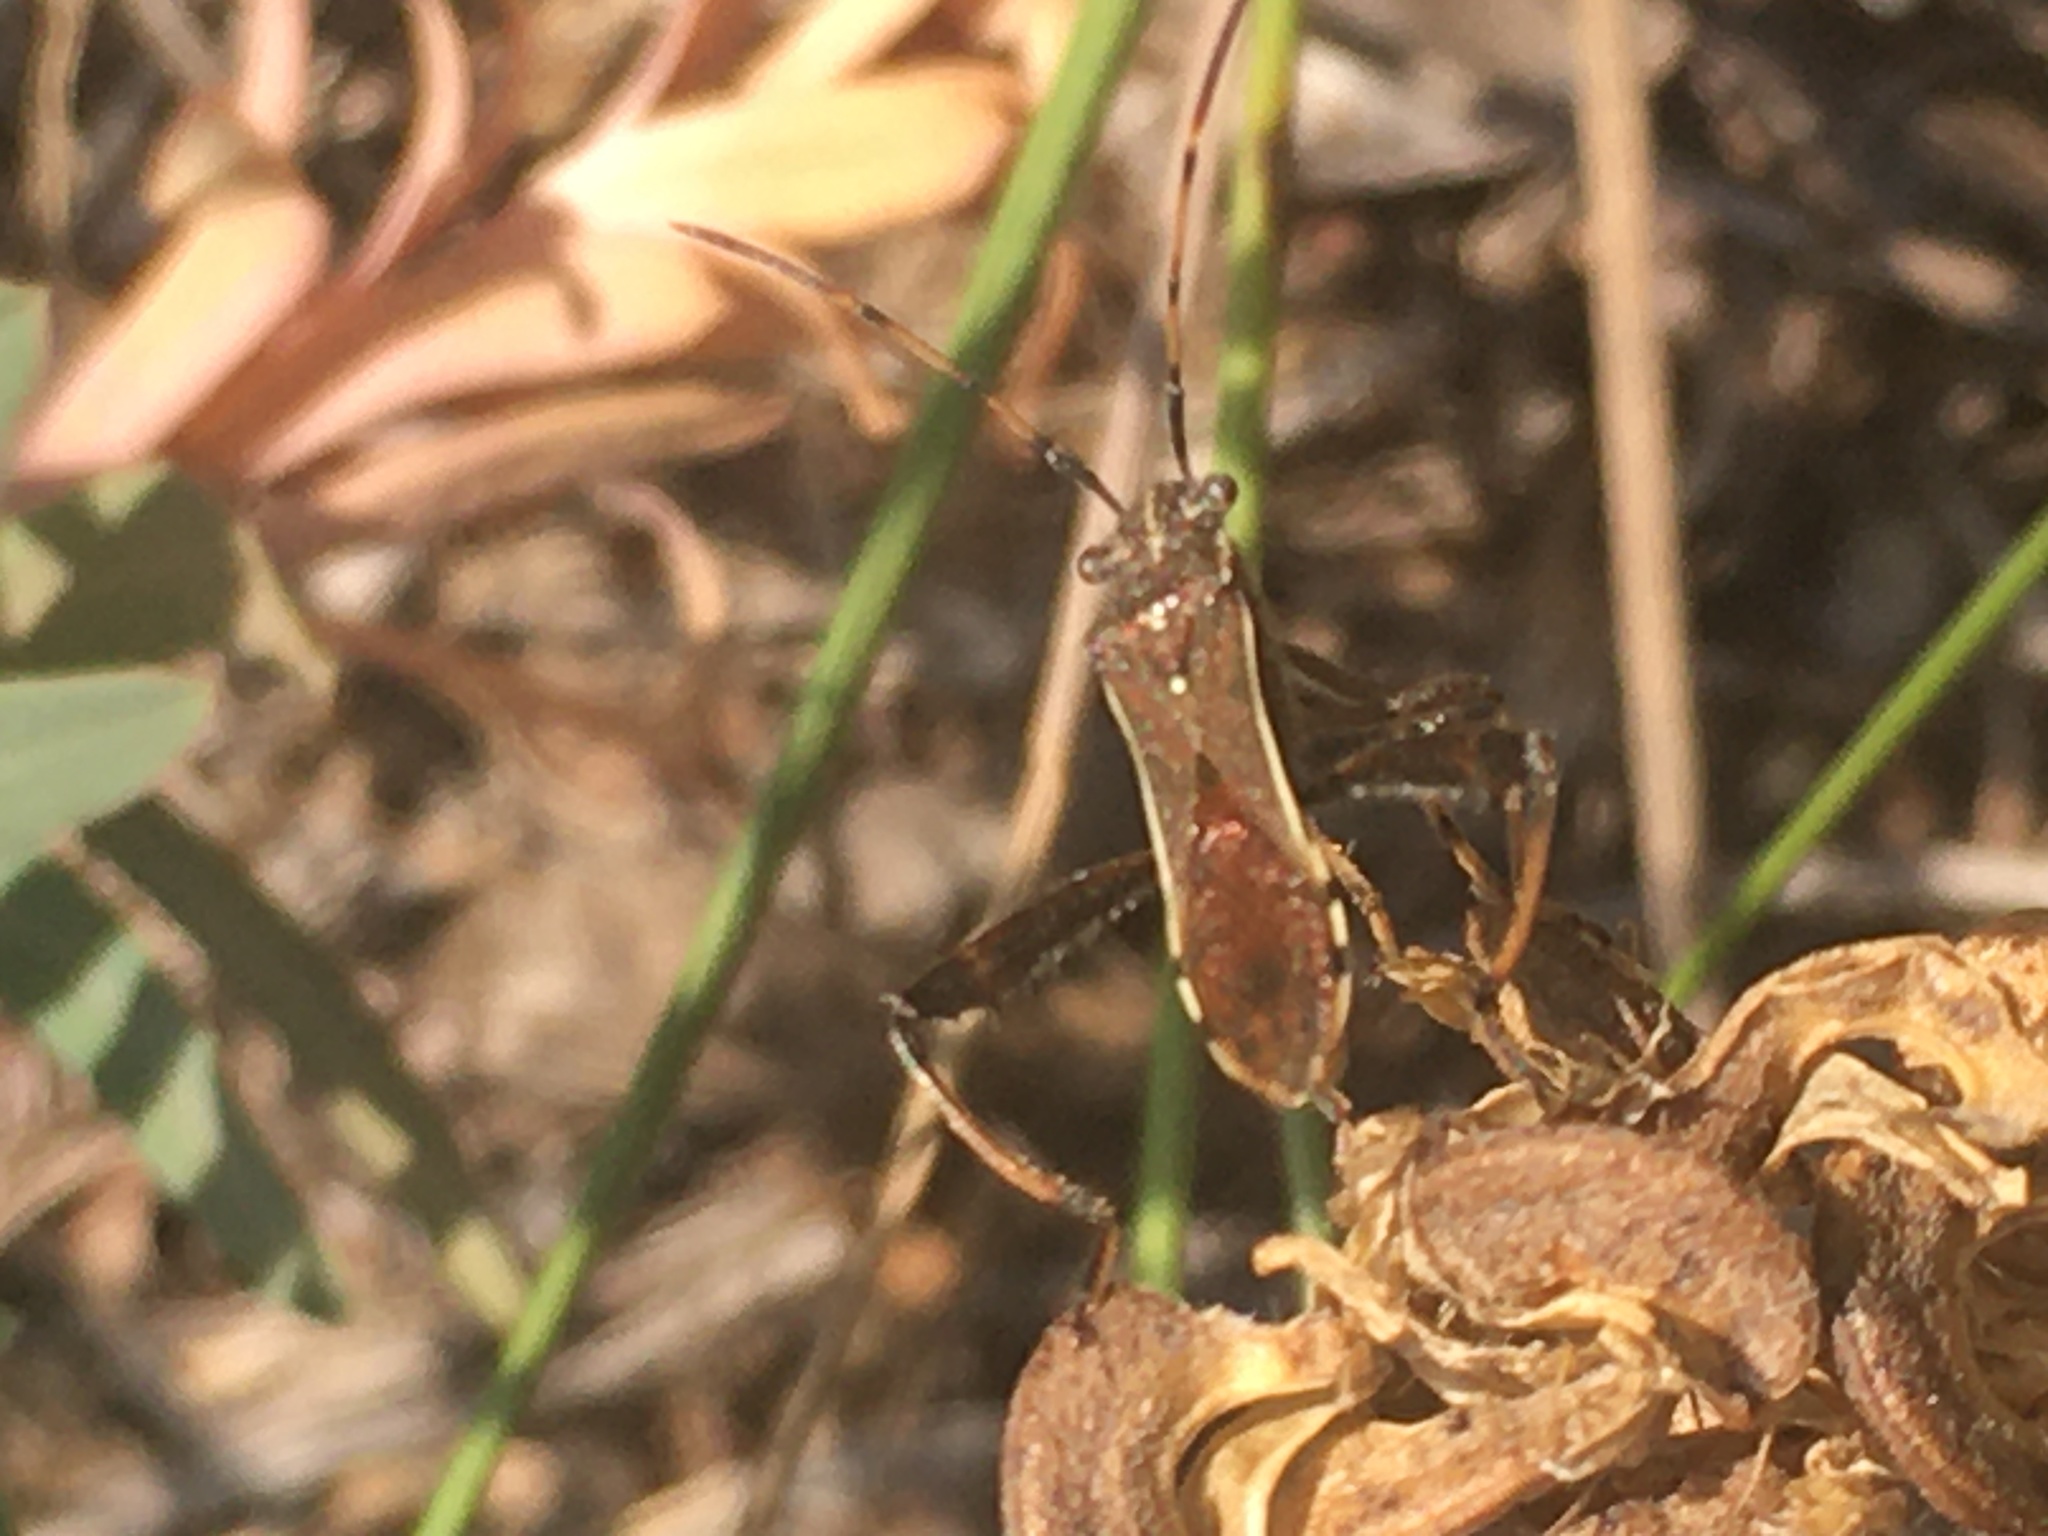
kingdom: Animalia
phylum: Arthropoda
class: Insecta
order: Hemiptera
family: Alydidae
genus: Camptopus
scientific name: Camptopus lateralis
